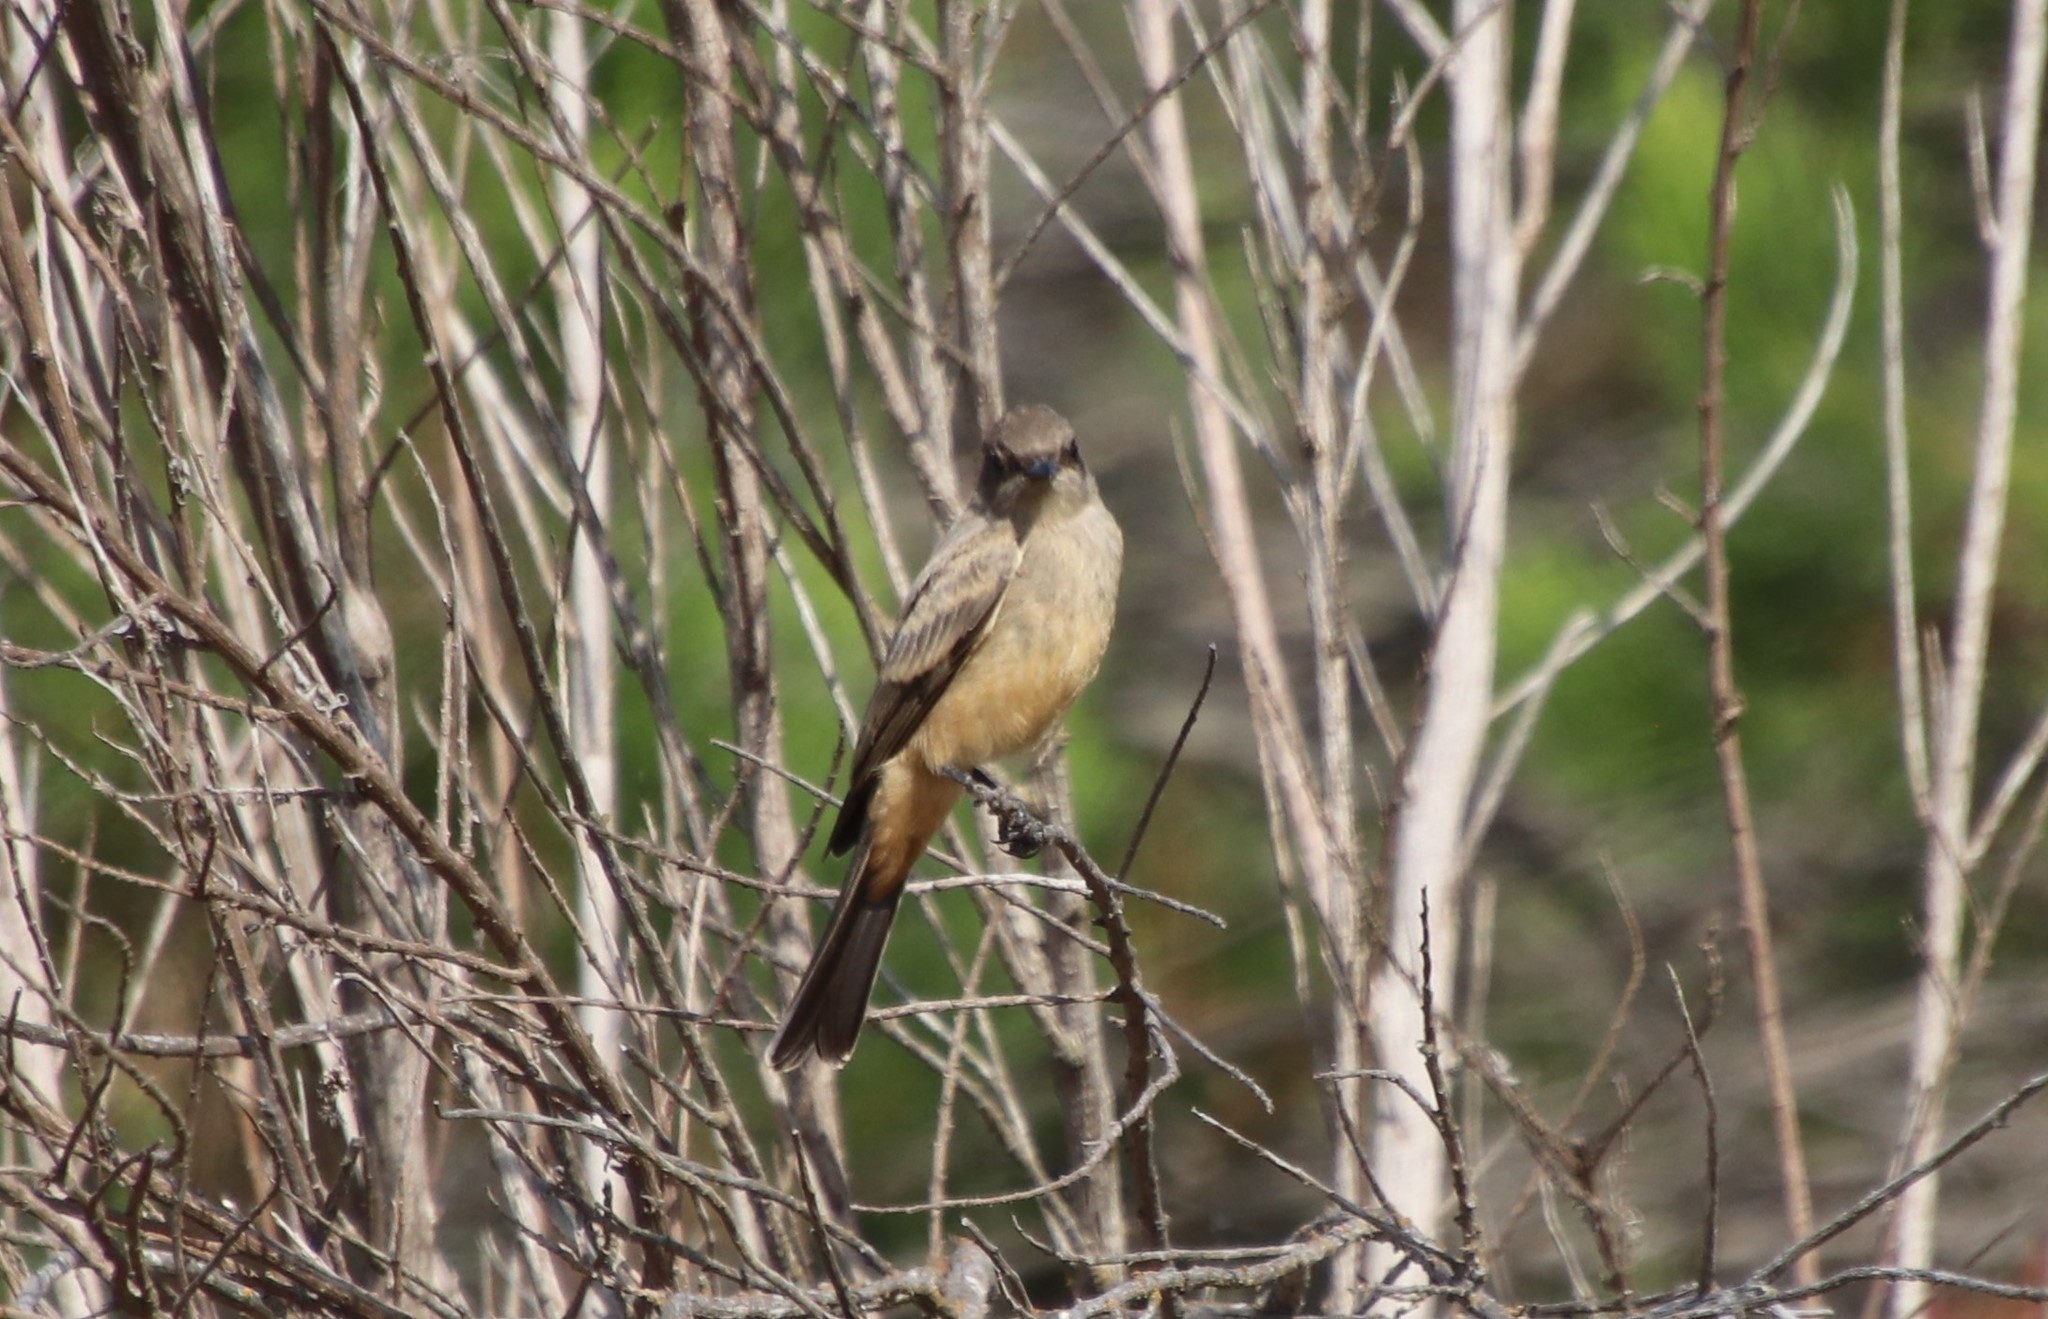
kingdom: Animalia
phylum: Chordata
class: Aves
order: Passeriformes
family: Tyrannidae
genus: Sayornis
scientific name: Sayornis saya
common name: Say's phoebe
